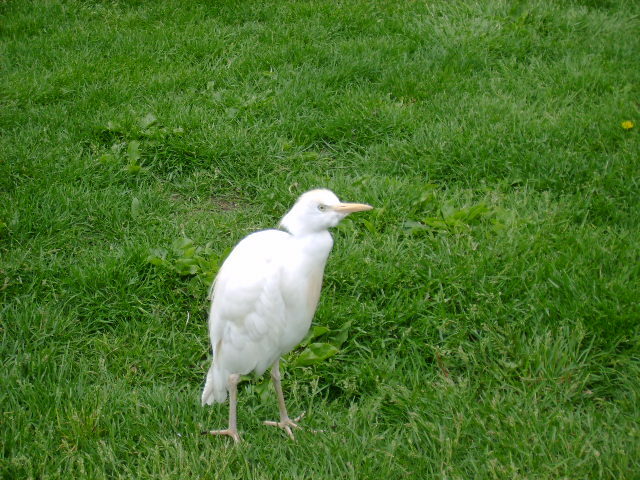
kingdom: Animalia
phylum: Chordata
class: Aves
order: Pelecaniformes
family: Ardeidae
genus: Bubulcus
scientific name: Bubulcus ibis
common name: Cattle egret
